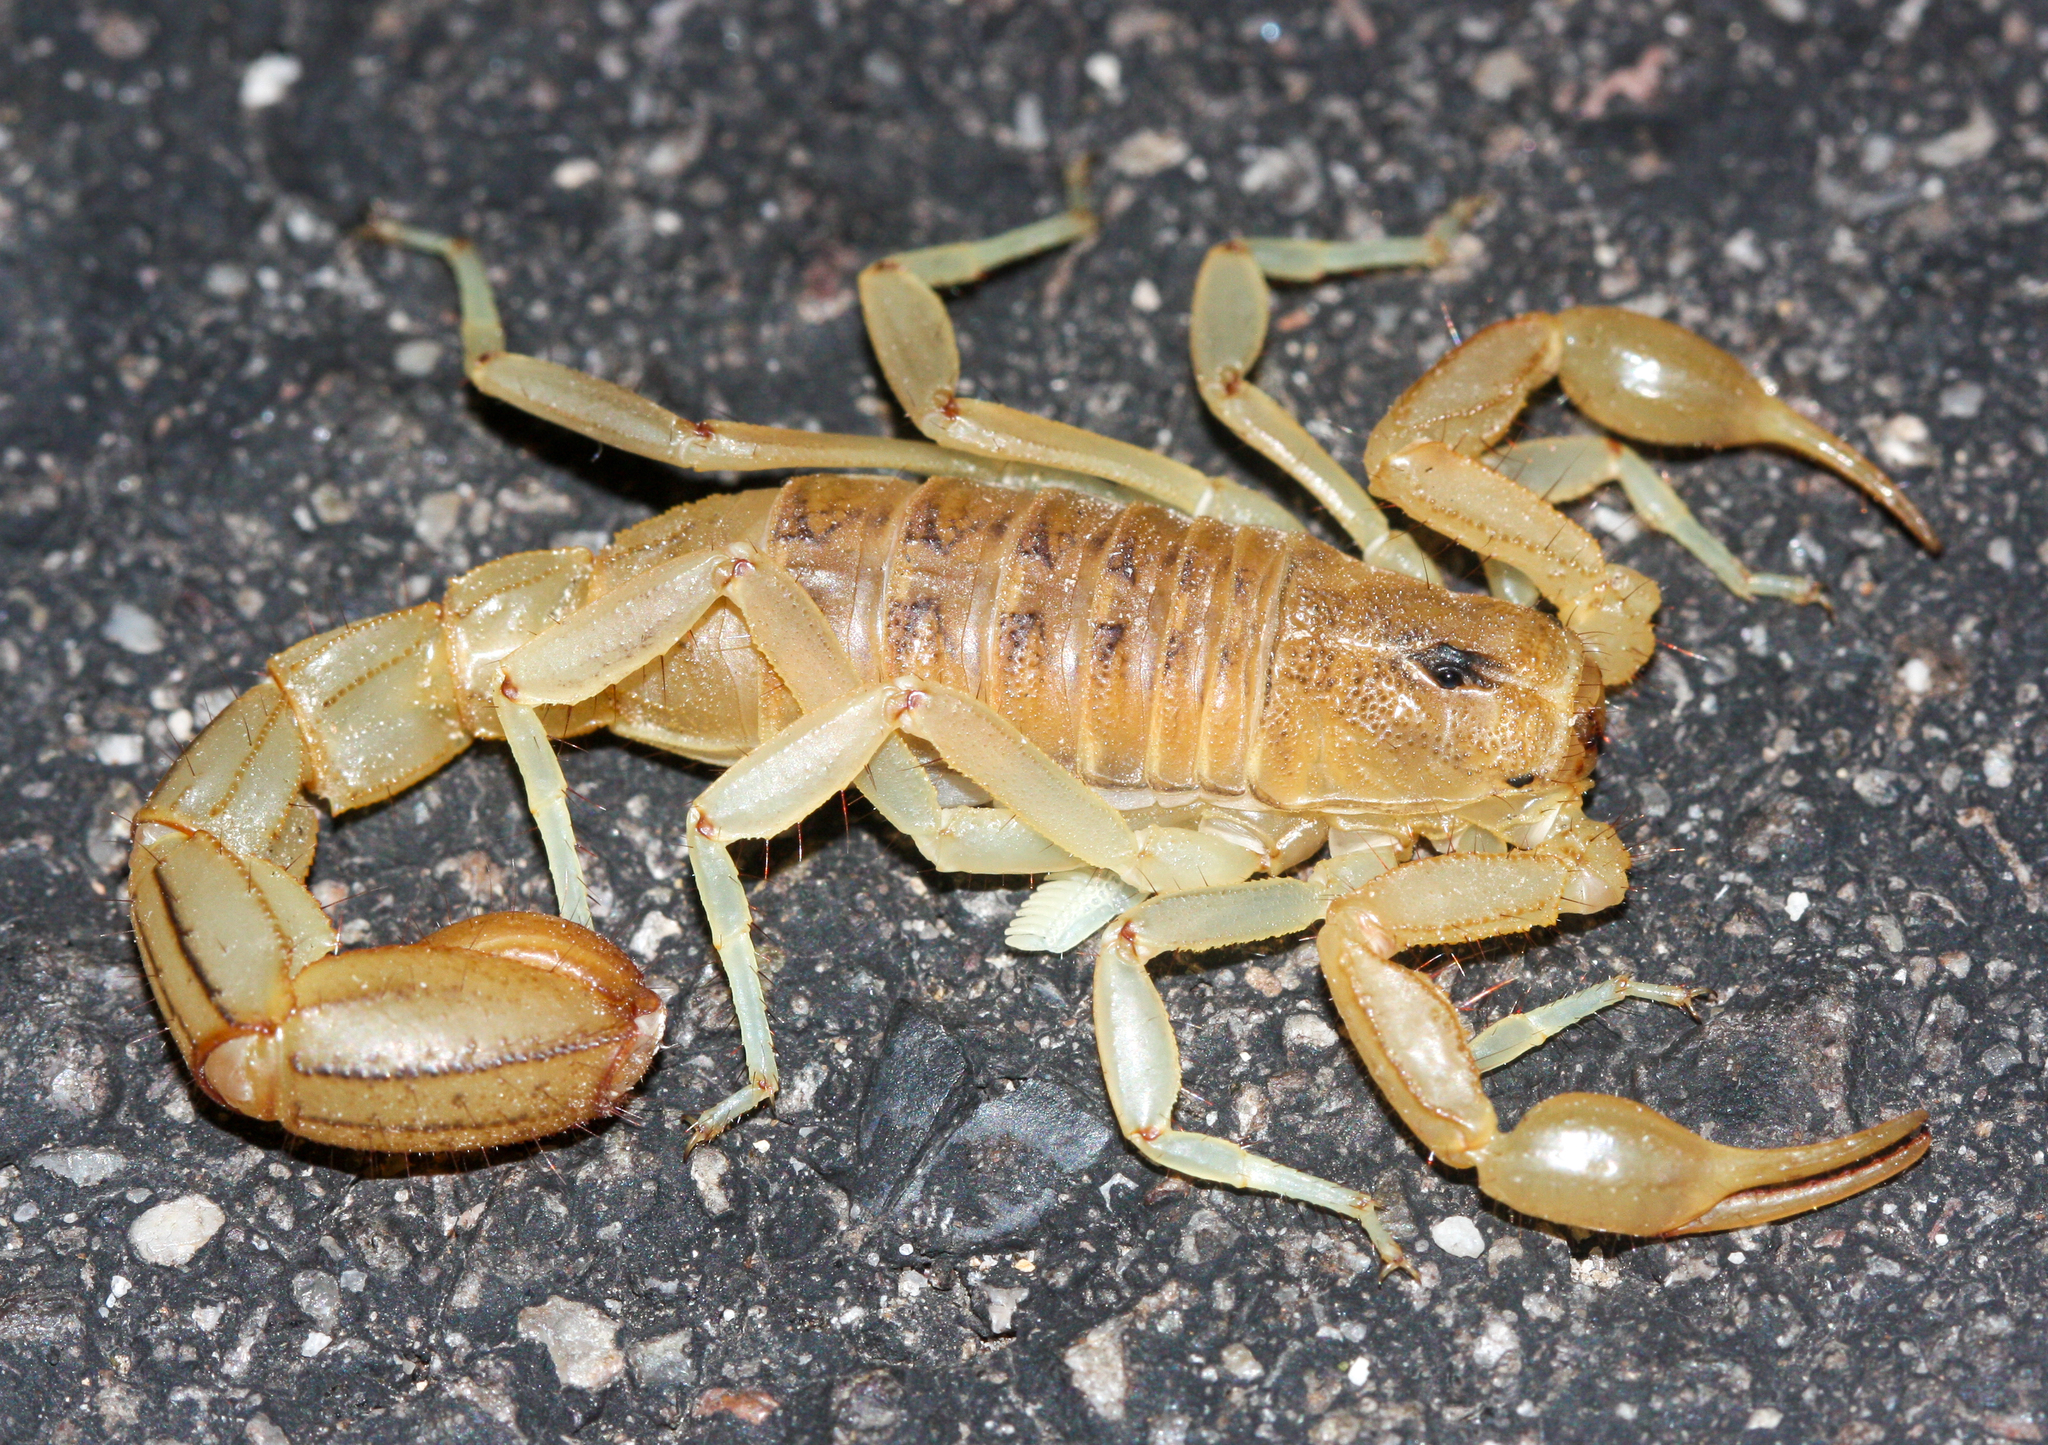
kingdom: Animalia
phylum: Arthropoda
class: Arachnida
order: Scorpiones
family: Vaejovidae
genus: Paravaejovis
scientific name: Paravaejovis spinigerus
